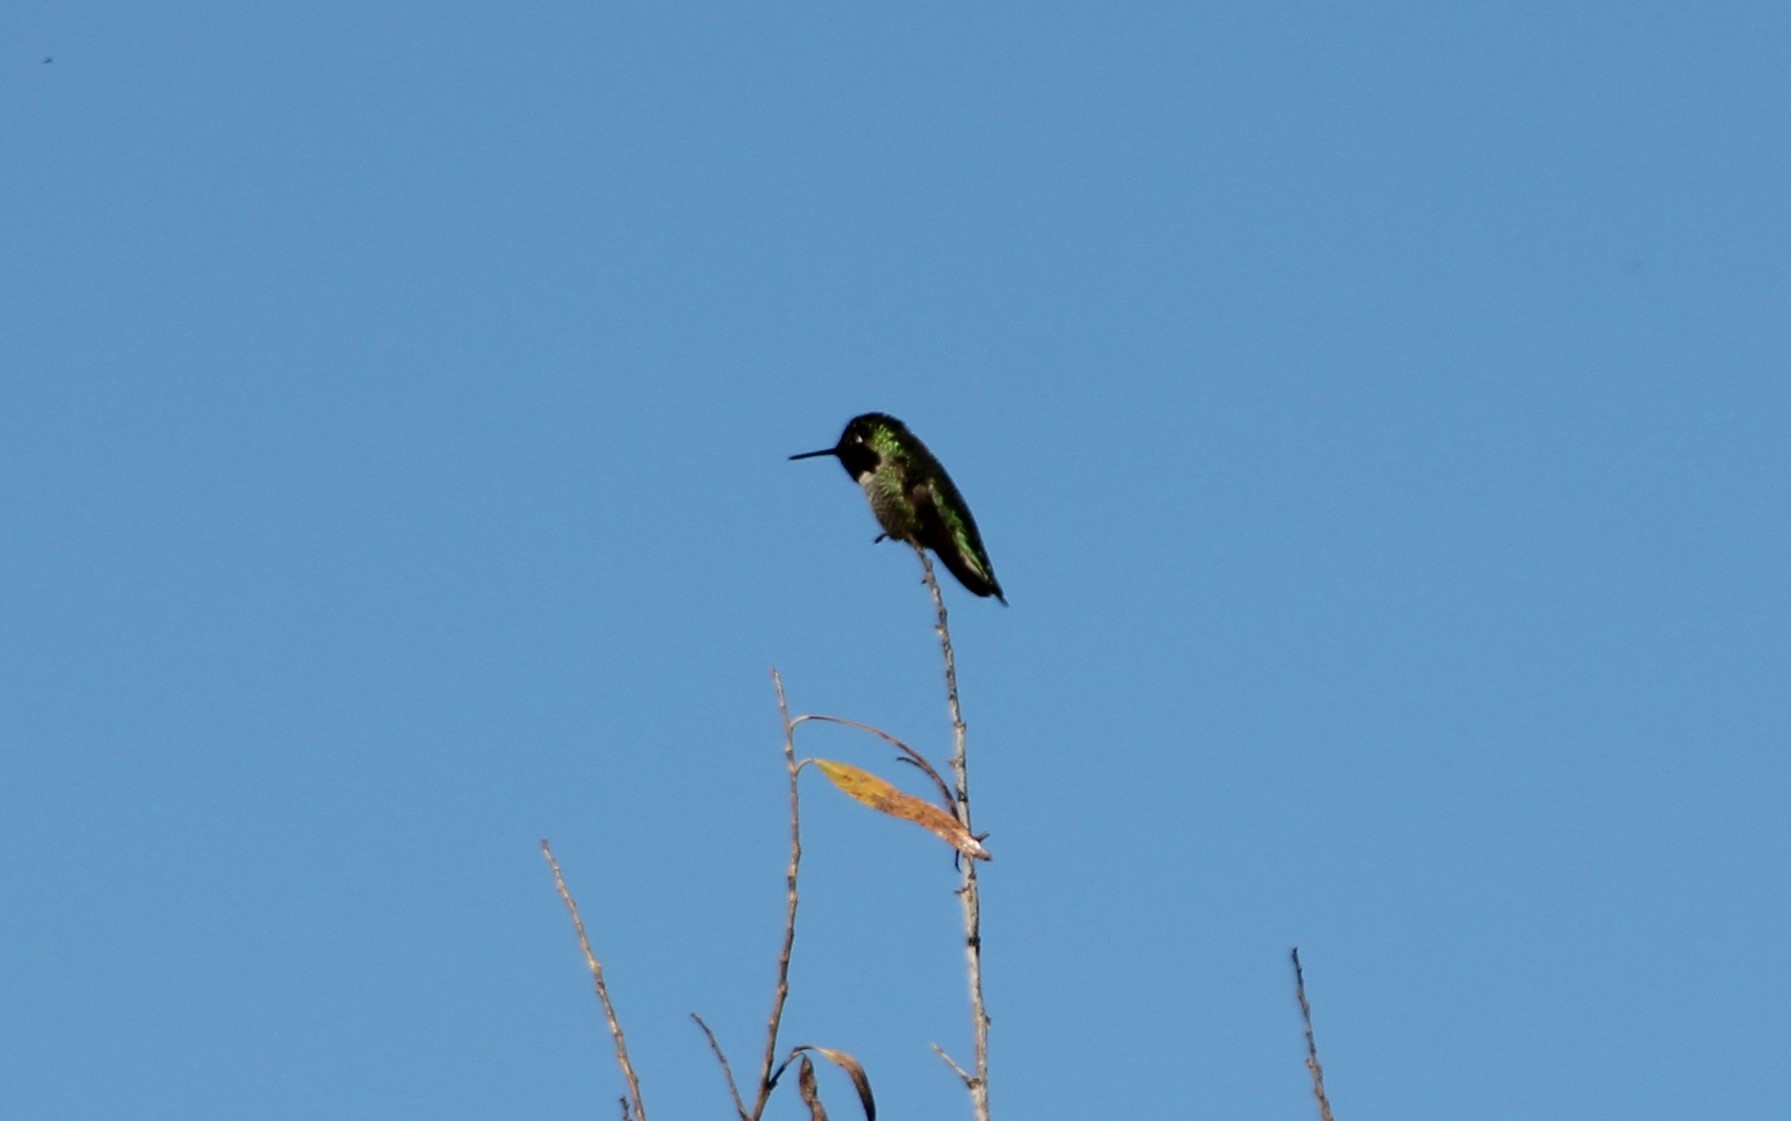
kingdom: Animalia
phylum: Chordata
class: Aves
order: Apodiformes
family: Trochilidae
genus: Calypte
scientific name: Calypte anna
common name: Anna's hummingbird
